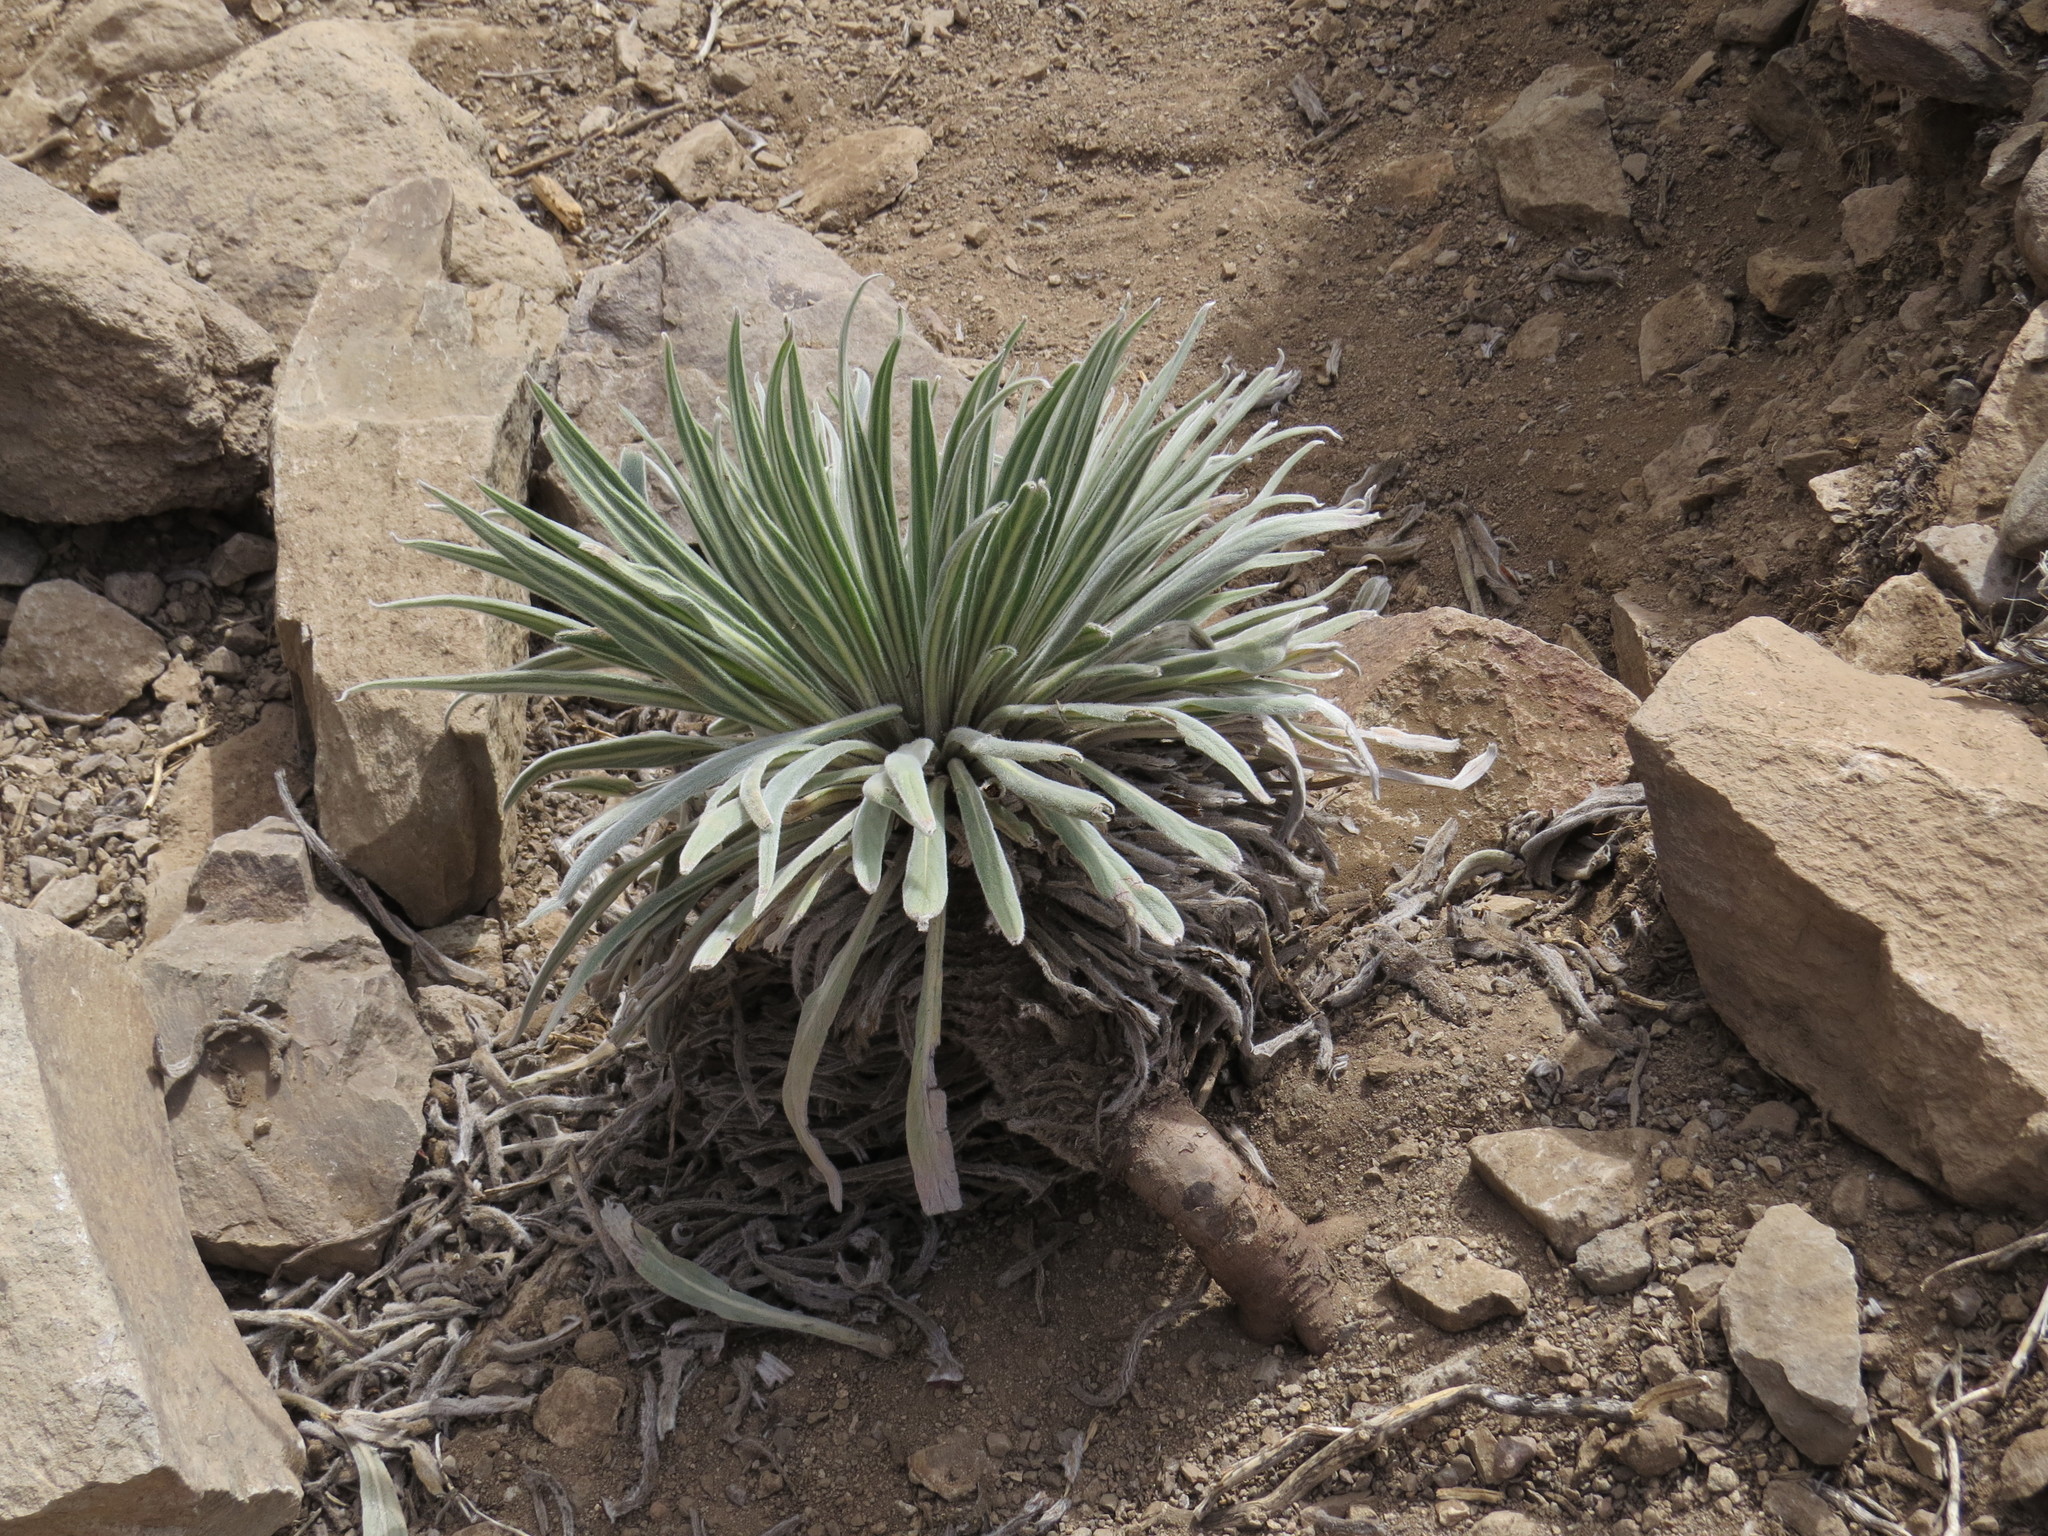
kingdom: Plantae
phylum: Tracheophyta
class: Magnoliopsida
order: Boraginales
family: Boraginaceae
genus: Echium
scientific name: Echium wildpretii
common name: Tower-of-jewels
